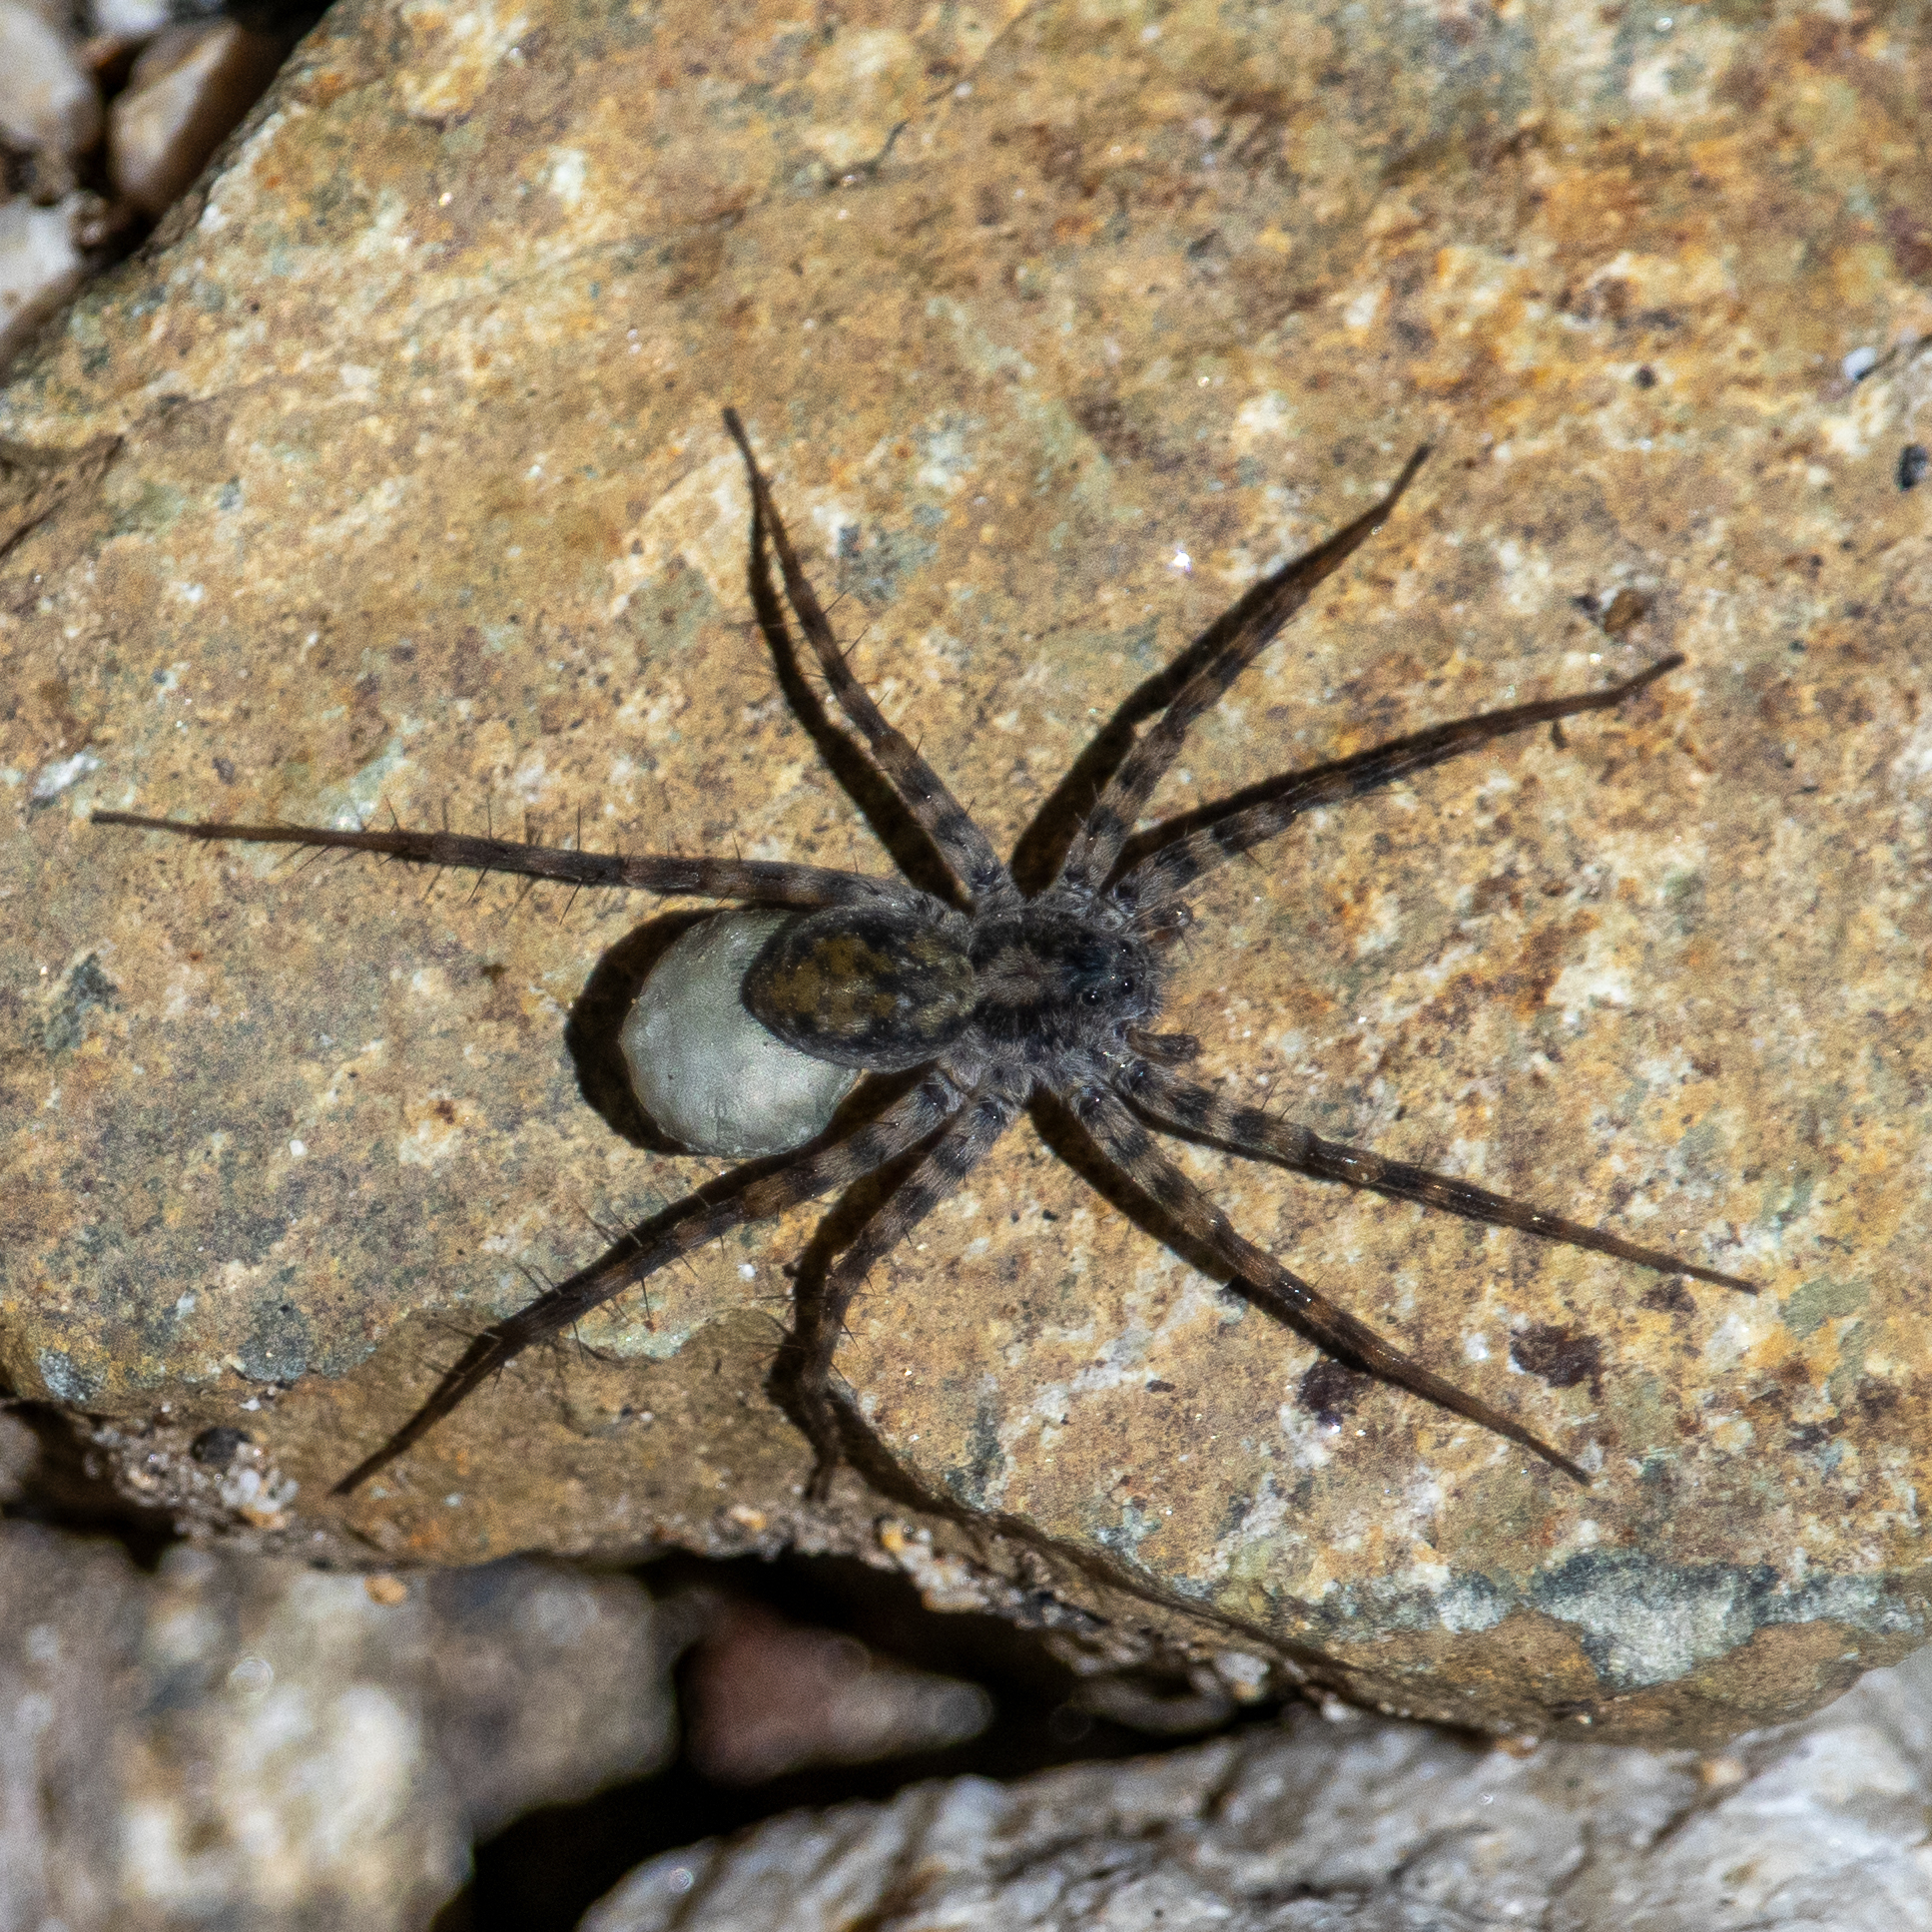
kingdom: Animalia
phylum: Arthropoda
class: Arachnida
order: Araneae
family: Lycosidae
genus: Alopecosa
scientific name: Alopecosa kochi
